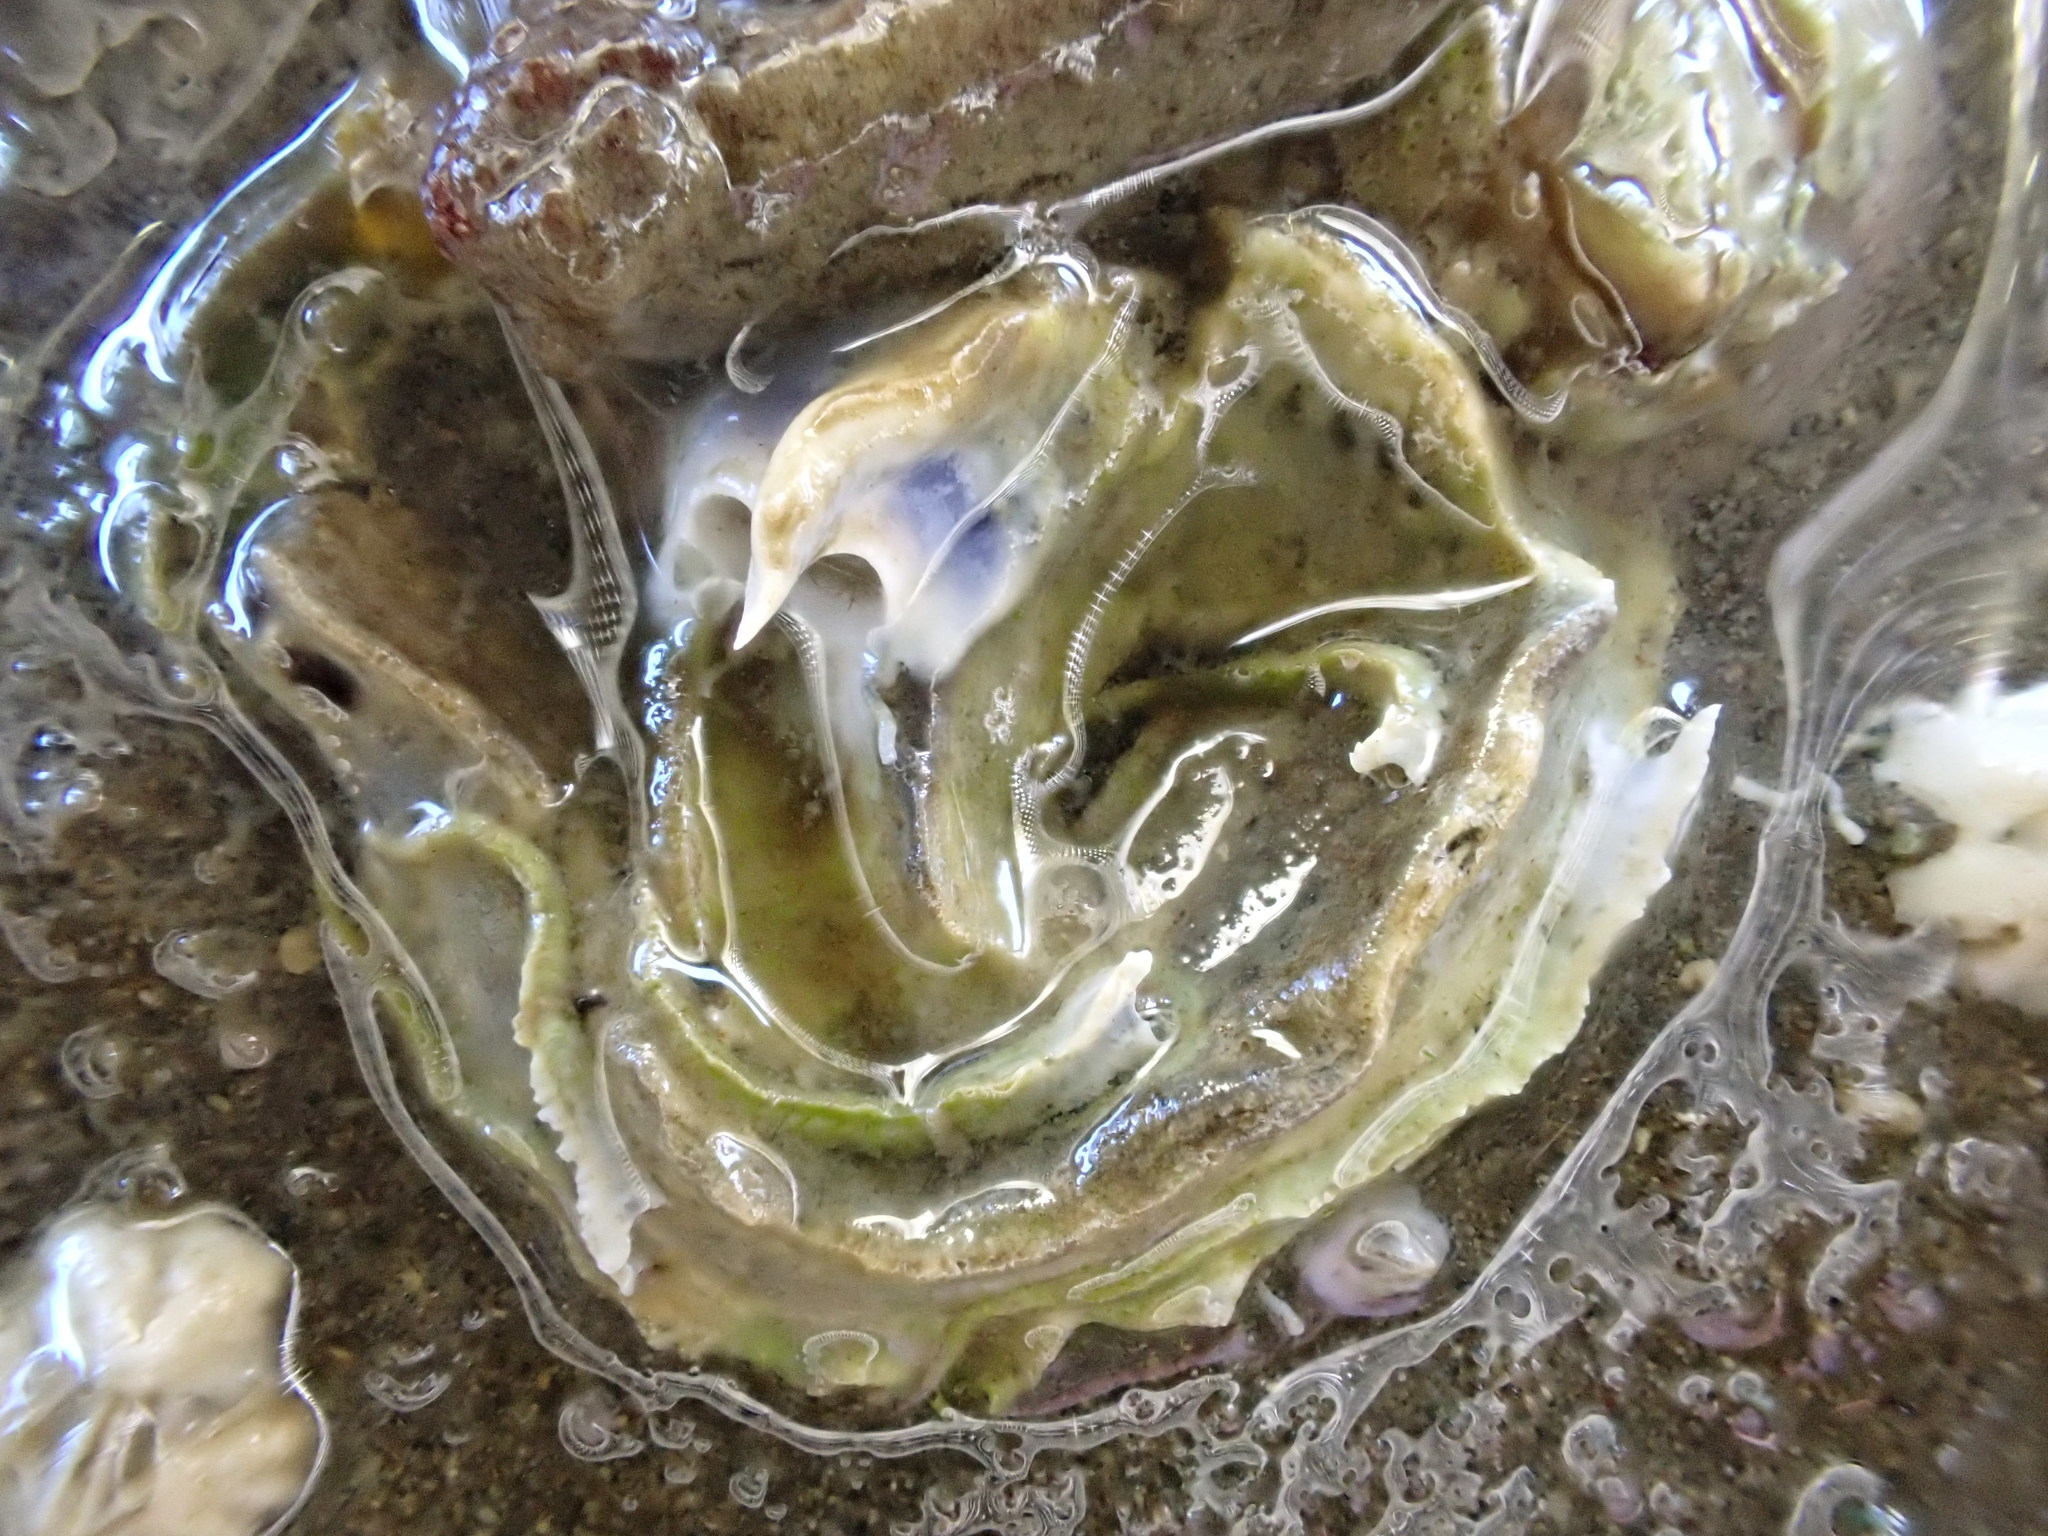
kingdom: Animalia
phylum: Annelida
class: Polychaeta
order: Sabellida
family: Serpulidae
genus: Spirobranchus
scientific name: Spirobranchus cariniferus
